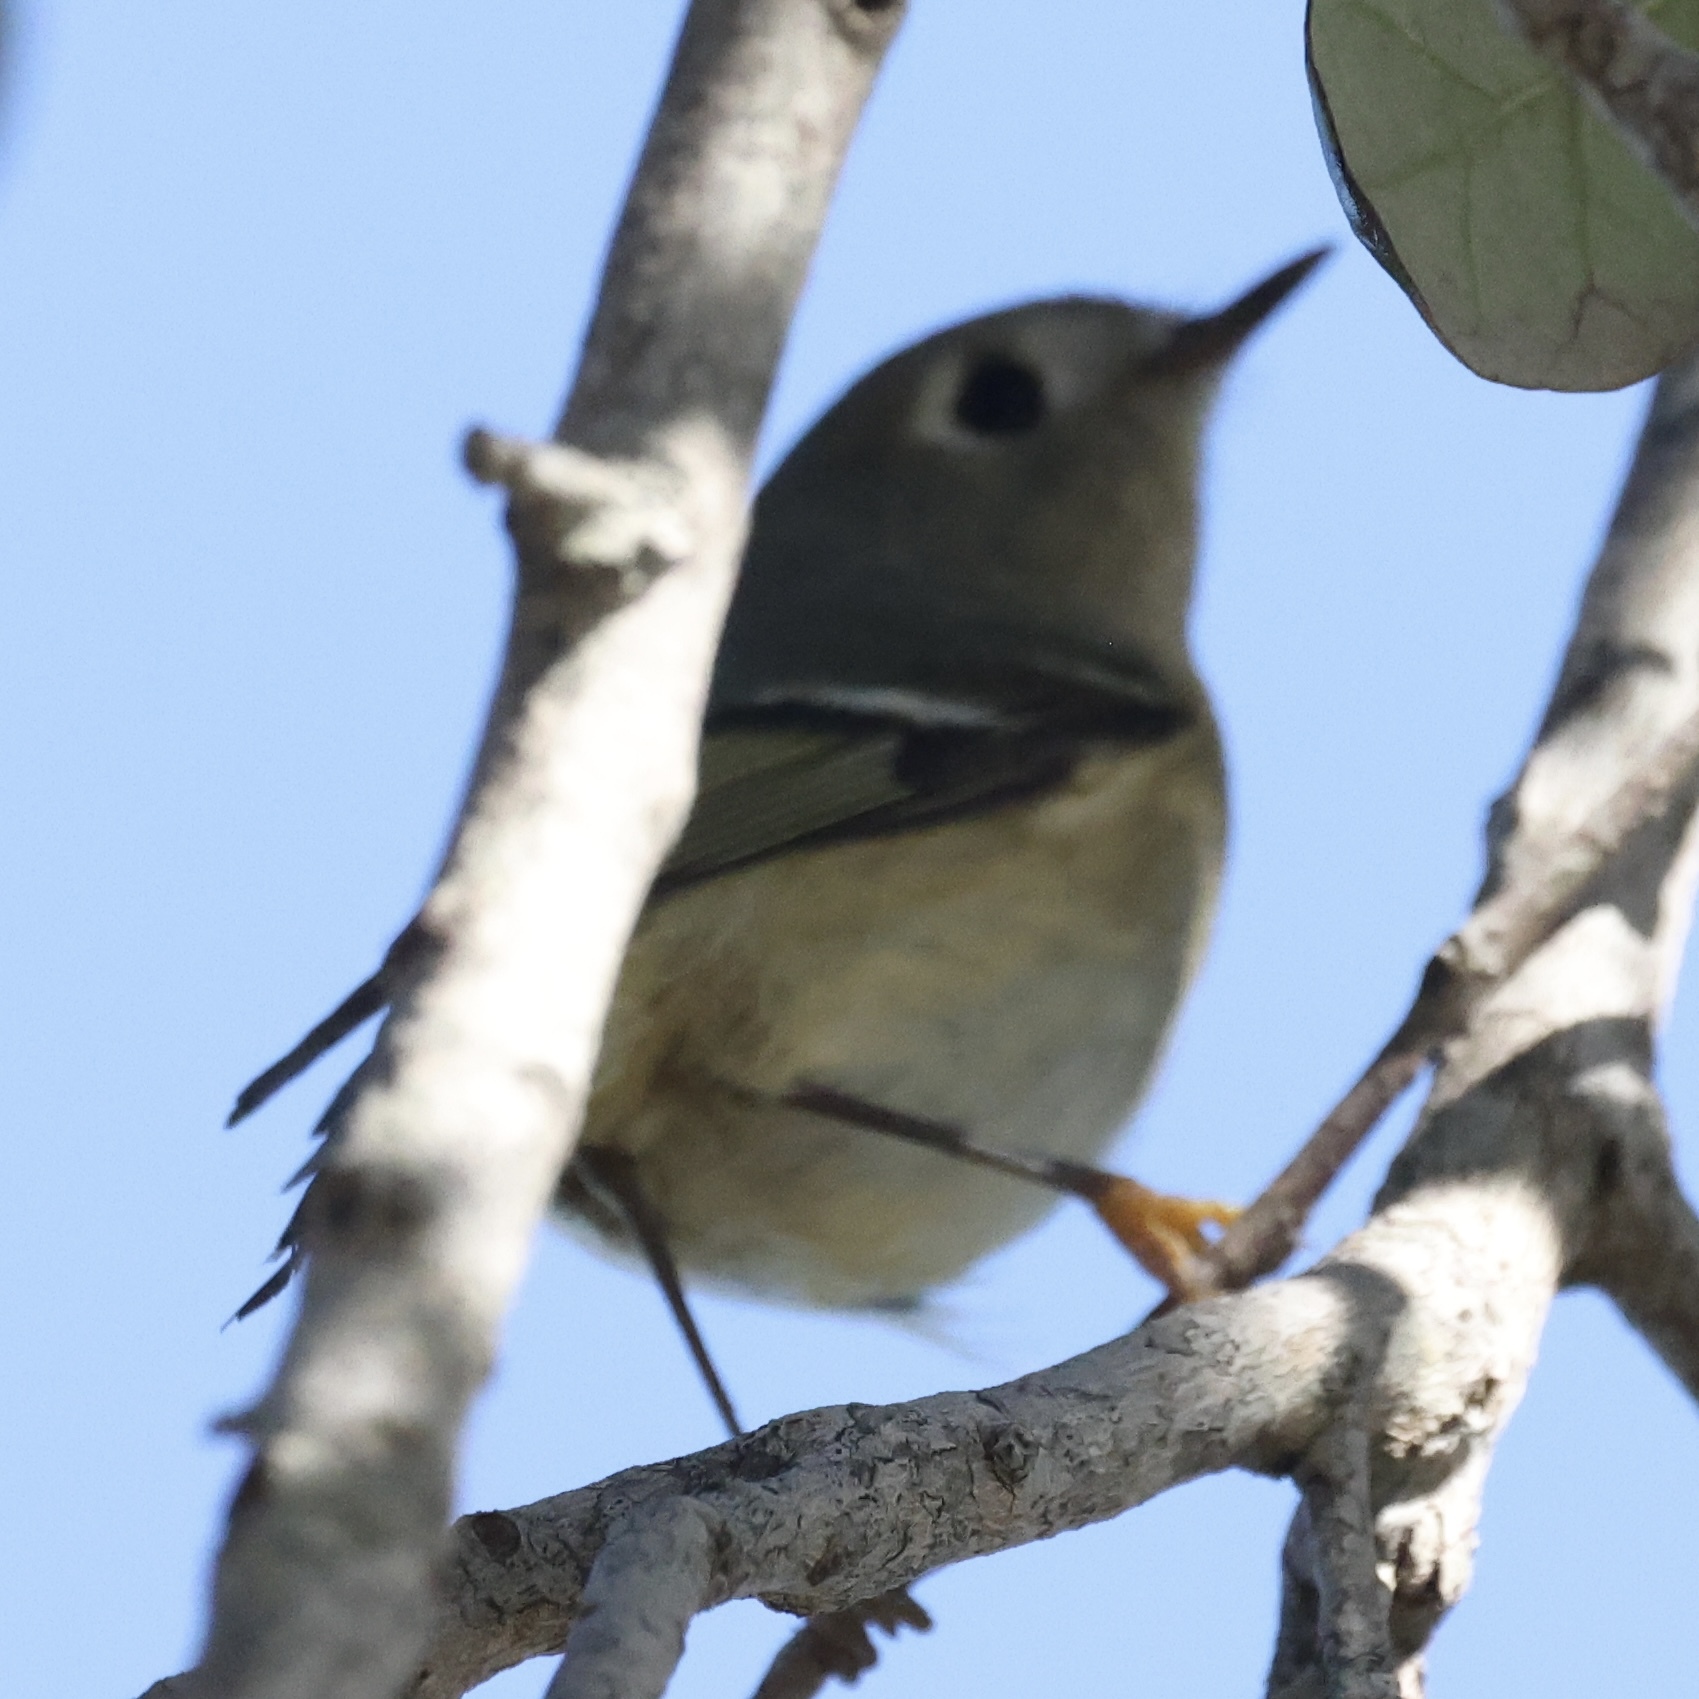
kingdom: Animalia
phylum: Chordata
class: Aves
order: Passeriformes
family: Regulidae
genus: Regulus
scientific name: Regulus calendula
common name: Ruby-crowned kinglet
